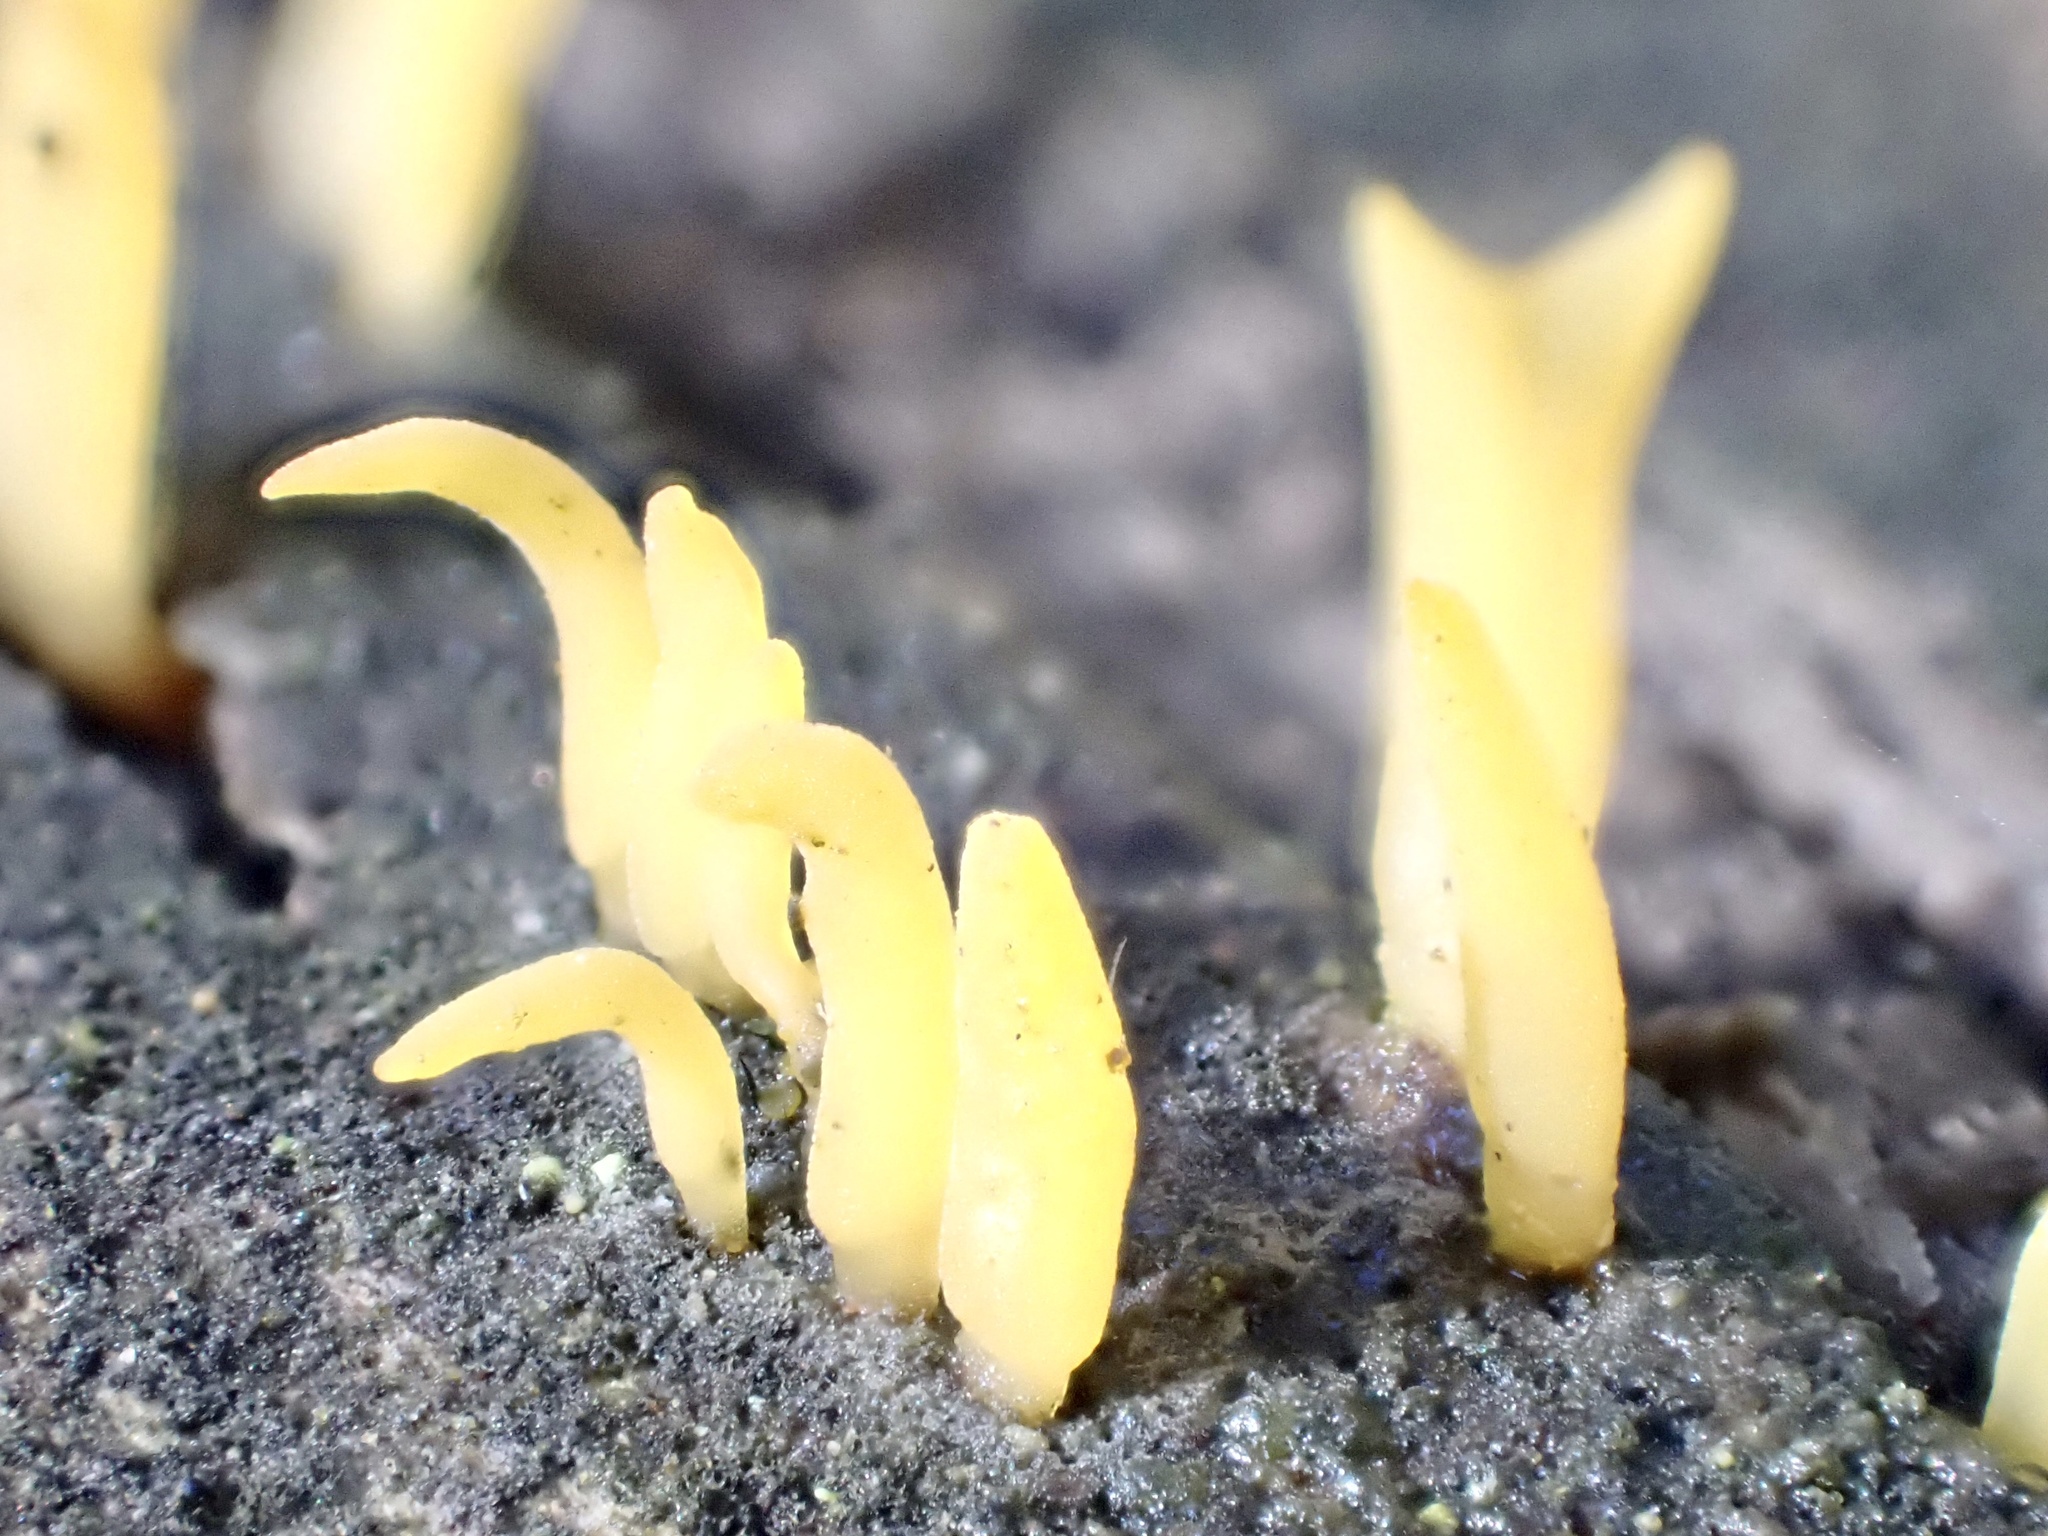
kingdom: Fungi
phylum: Basidiomycota
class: Dacrymycetes
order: Dacrymycetales
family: Dacrymycetaceae
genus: Calocera
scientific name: Calocera cornea
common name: Small stagshorn
